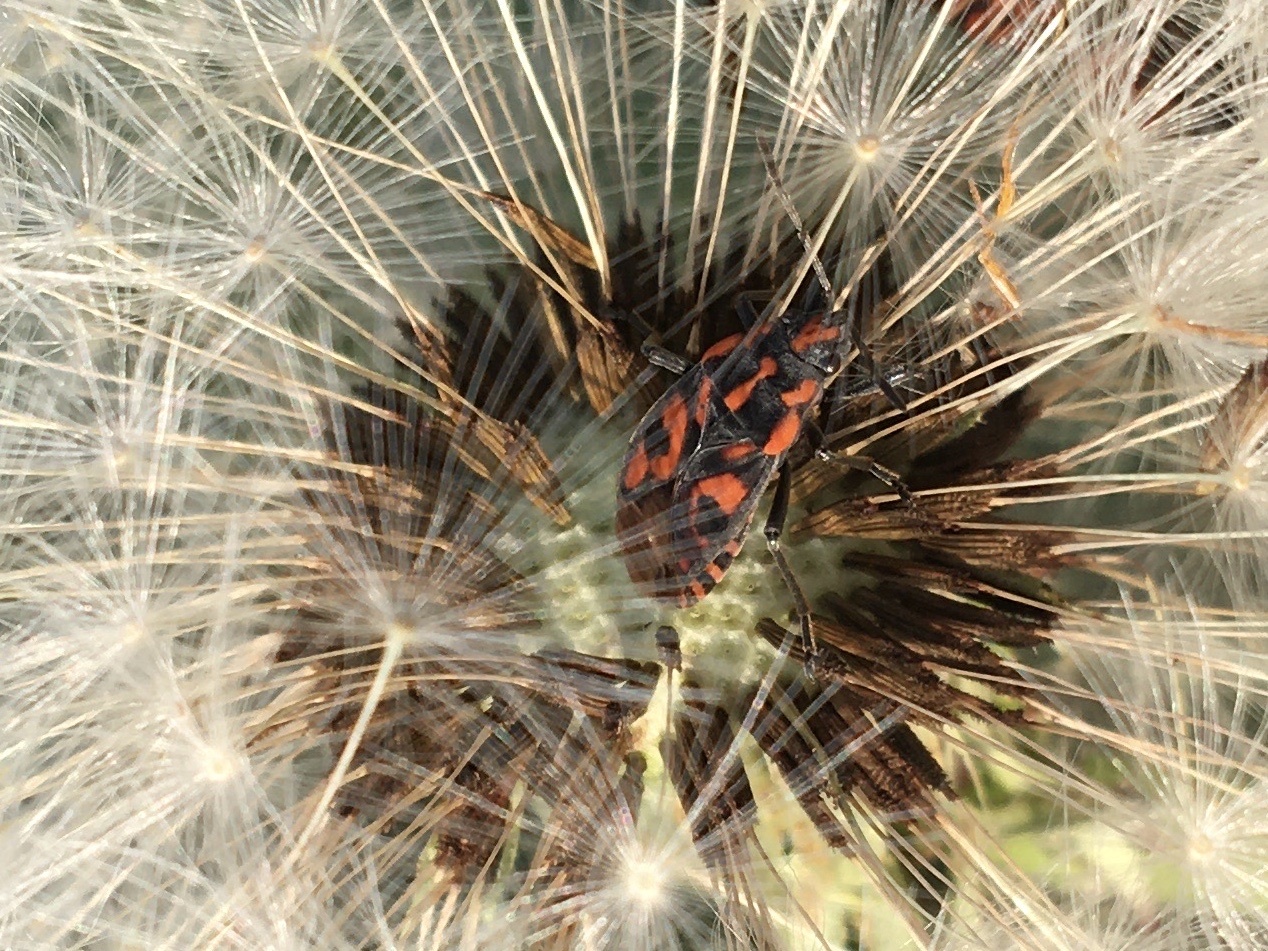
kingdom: Animalia
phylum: Arthropoda
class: Insecta
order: Hemiptera
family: Lygaeidae
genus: Spilostethus
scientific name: Spilostethus saxatilis
